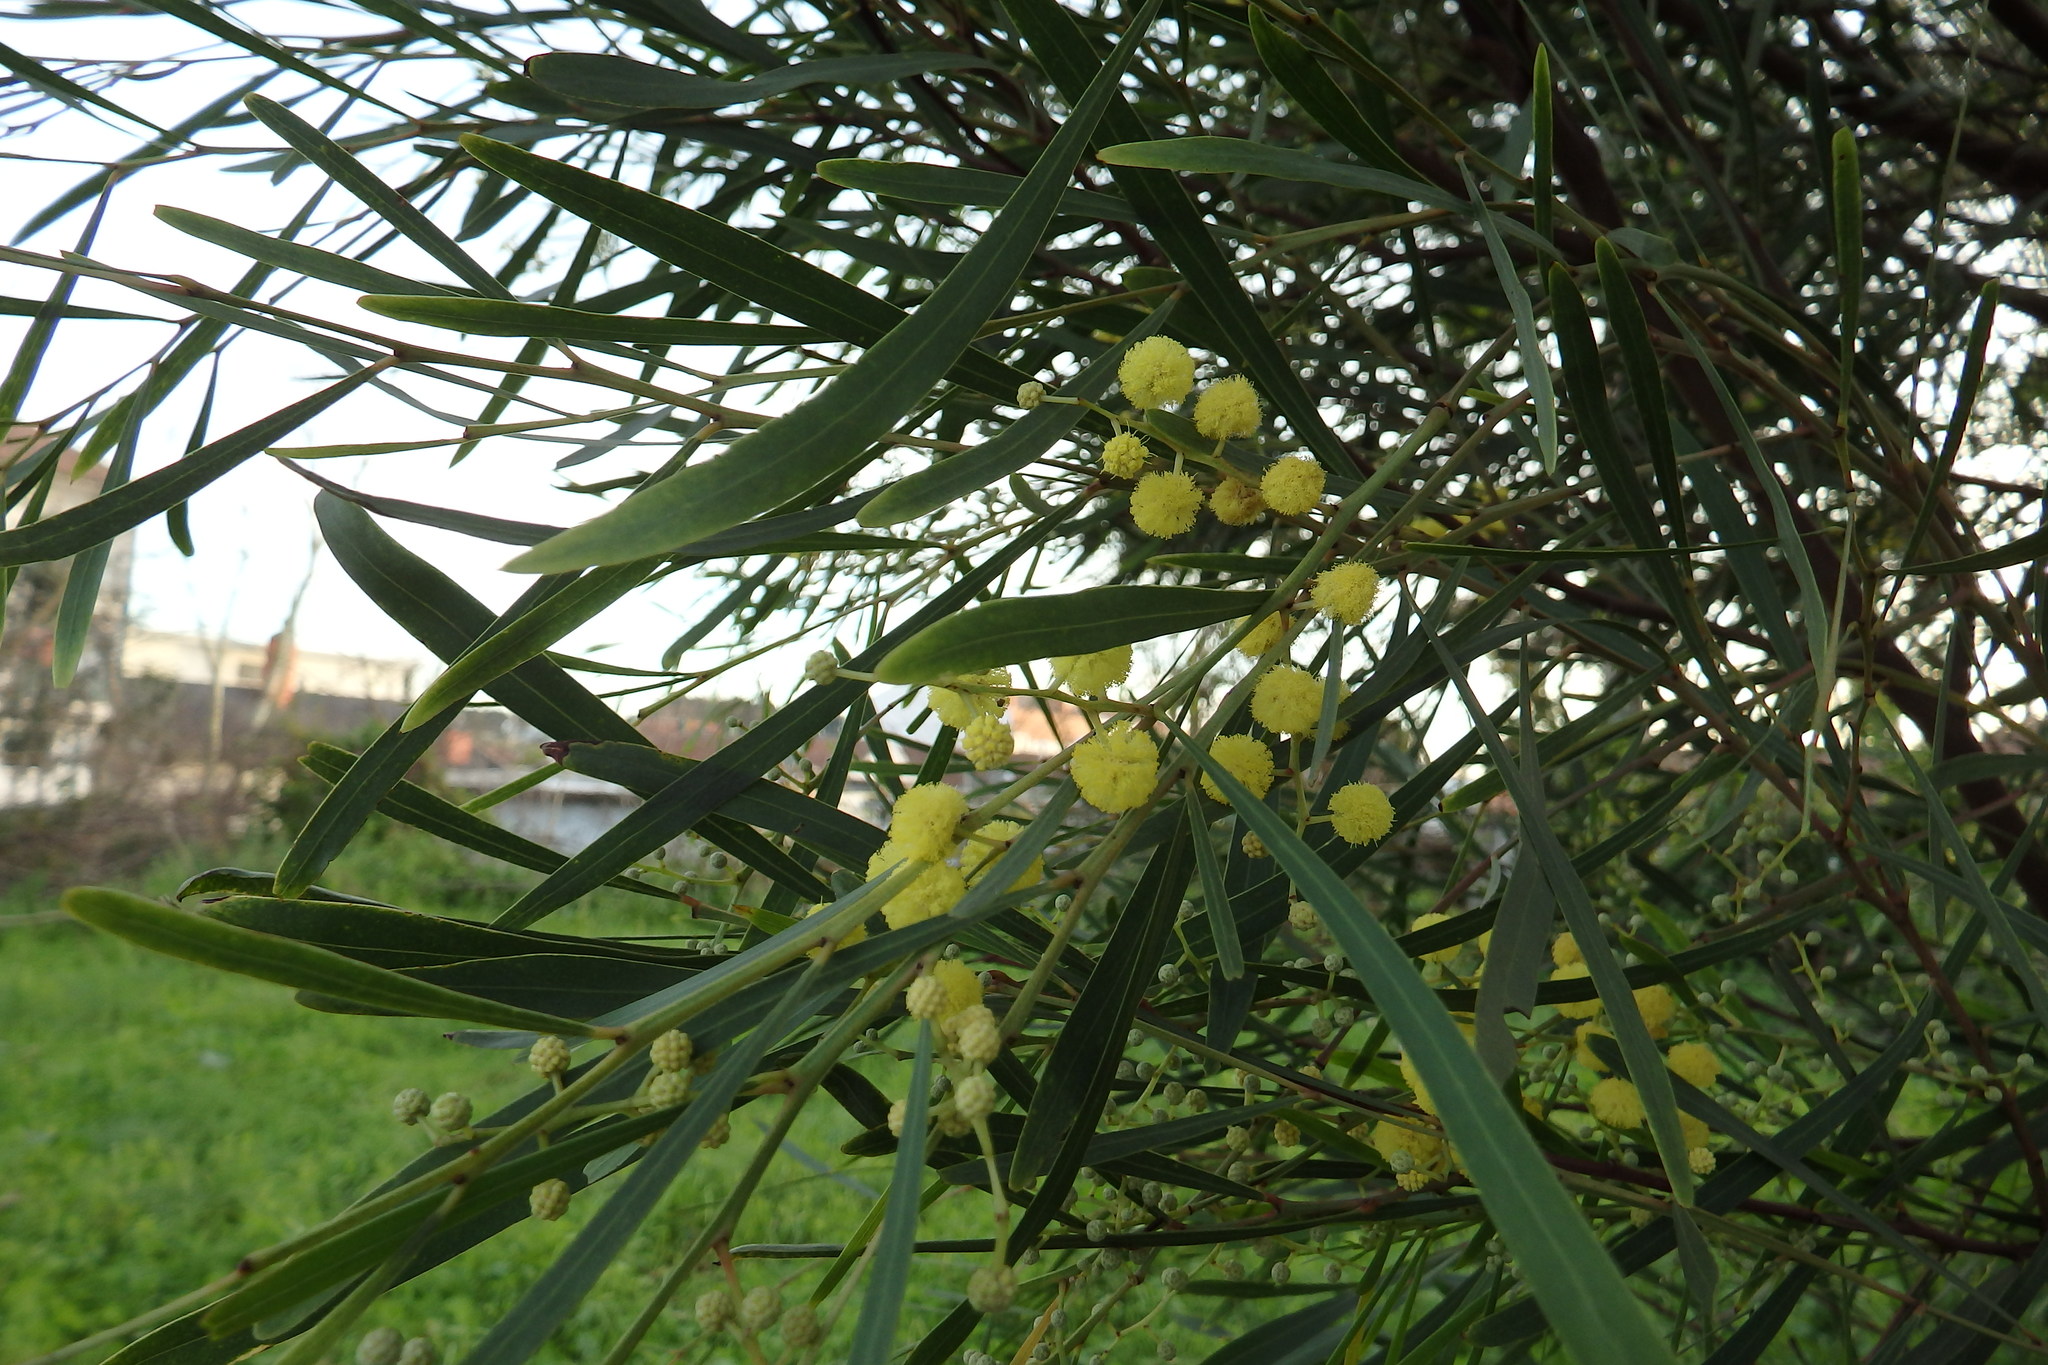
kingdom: Plantae
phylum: Tracheophyta
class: Magnoliopsida
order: Fabales
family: Fabaceae
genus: Acacia
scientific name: Acacia provincialis
